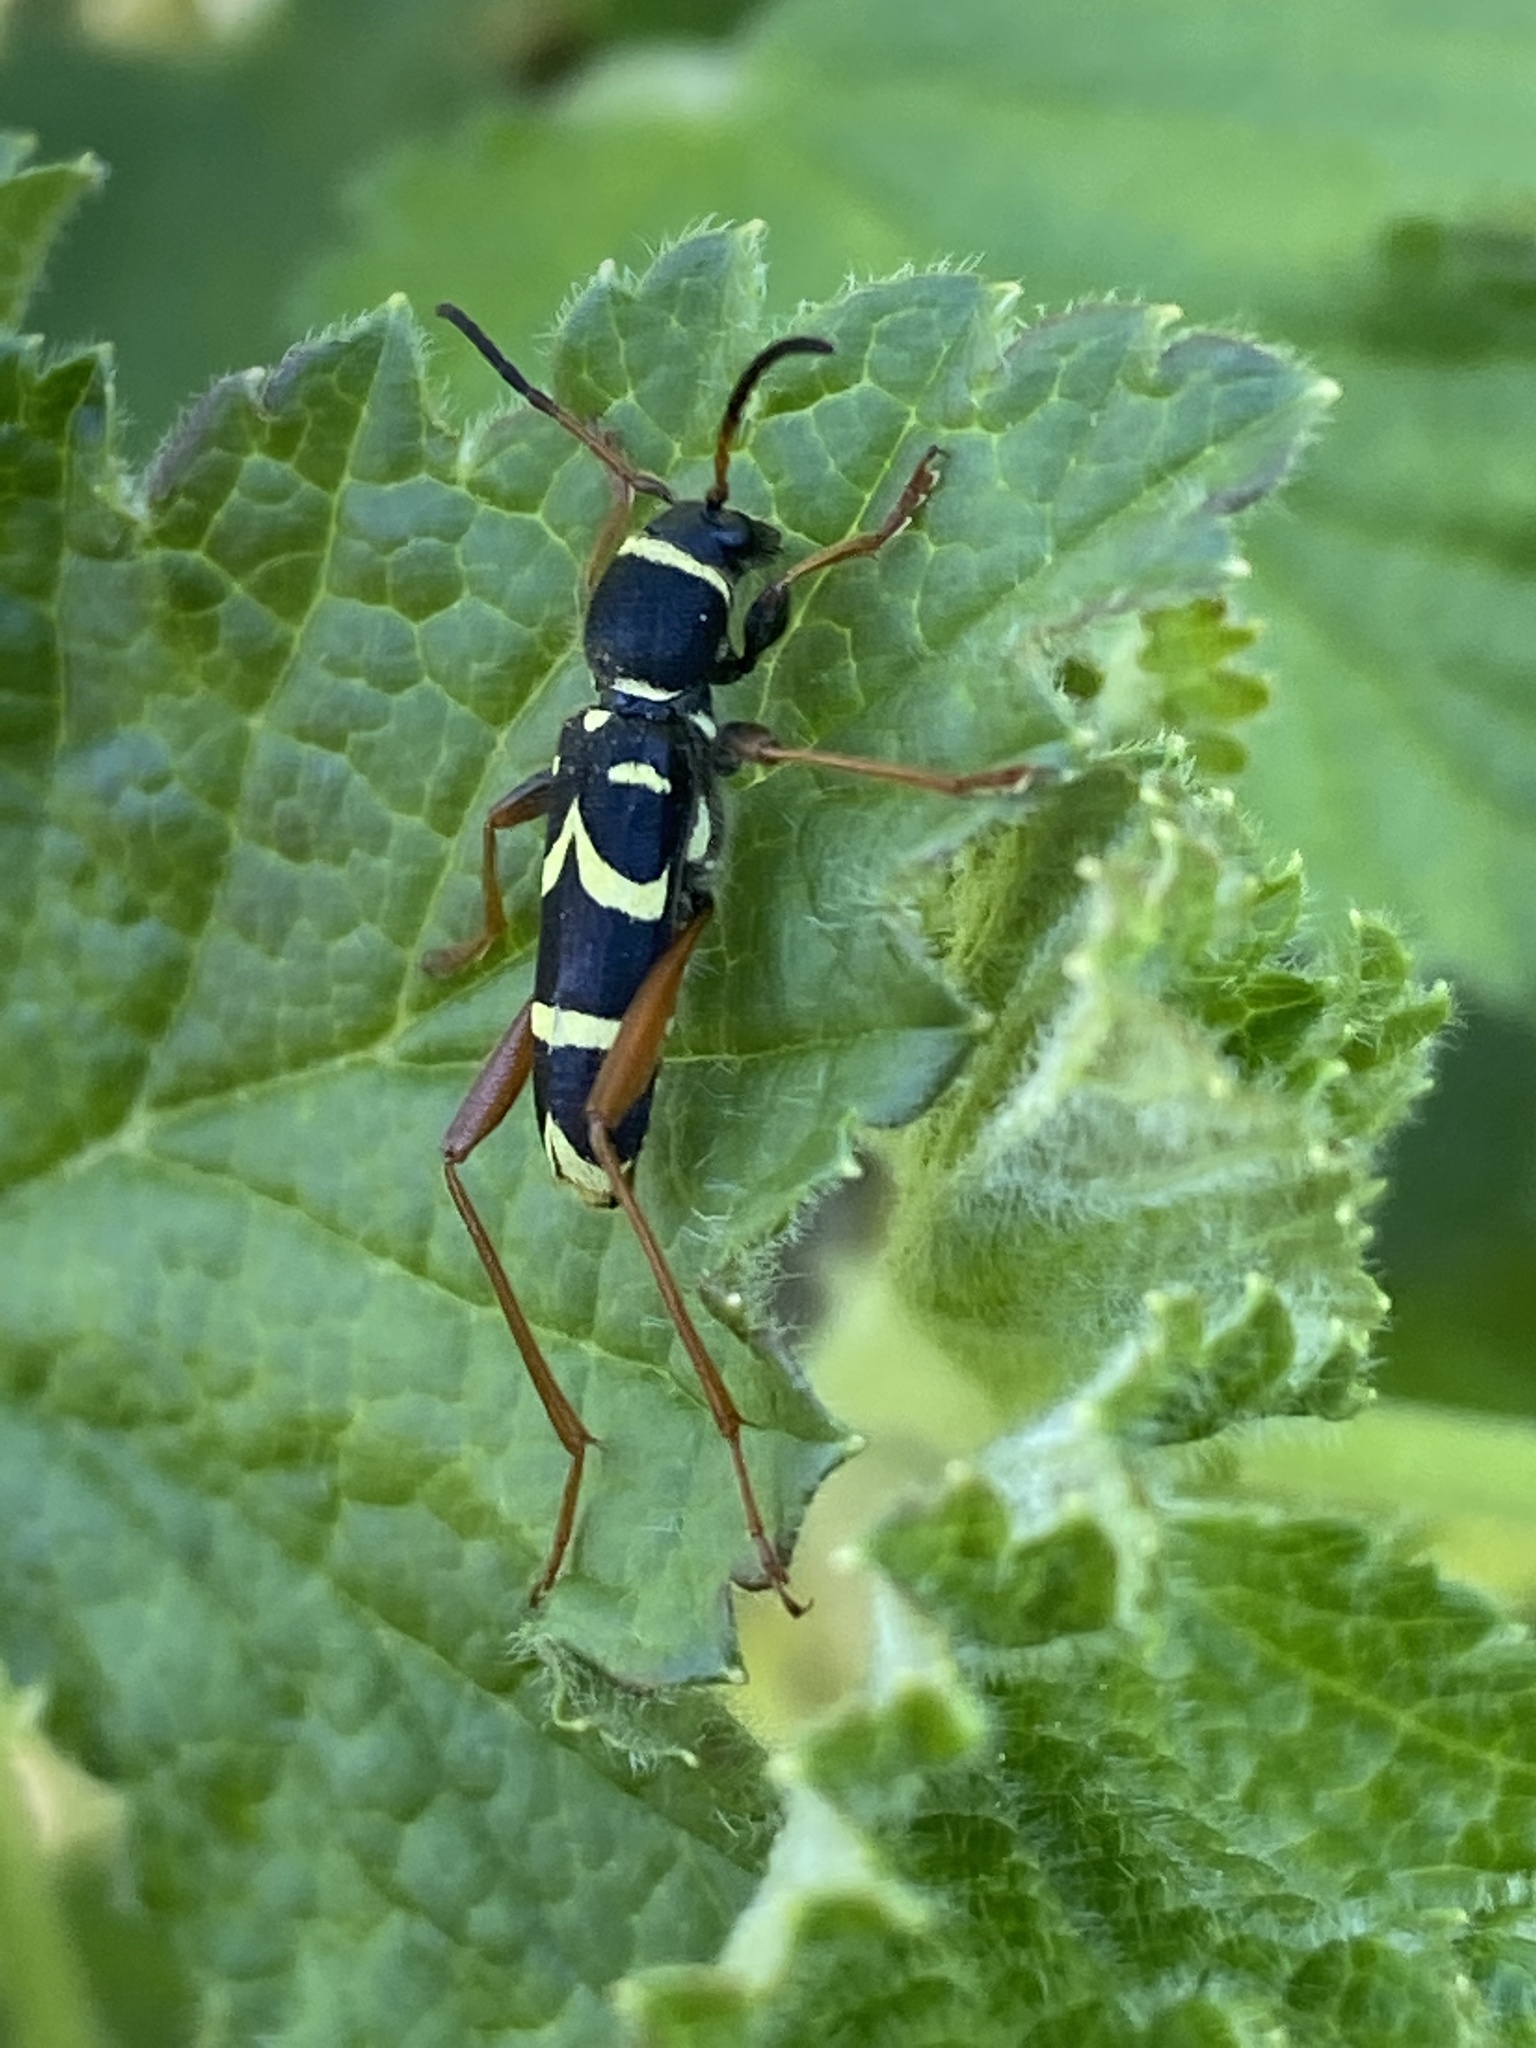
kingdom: Animalia
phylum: Arthropoda
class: Insecta
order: Coleoptera
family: Cerambycidae
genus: Clytus
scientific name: Clytus arietis
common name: Wasp beetle
